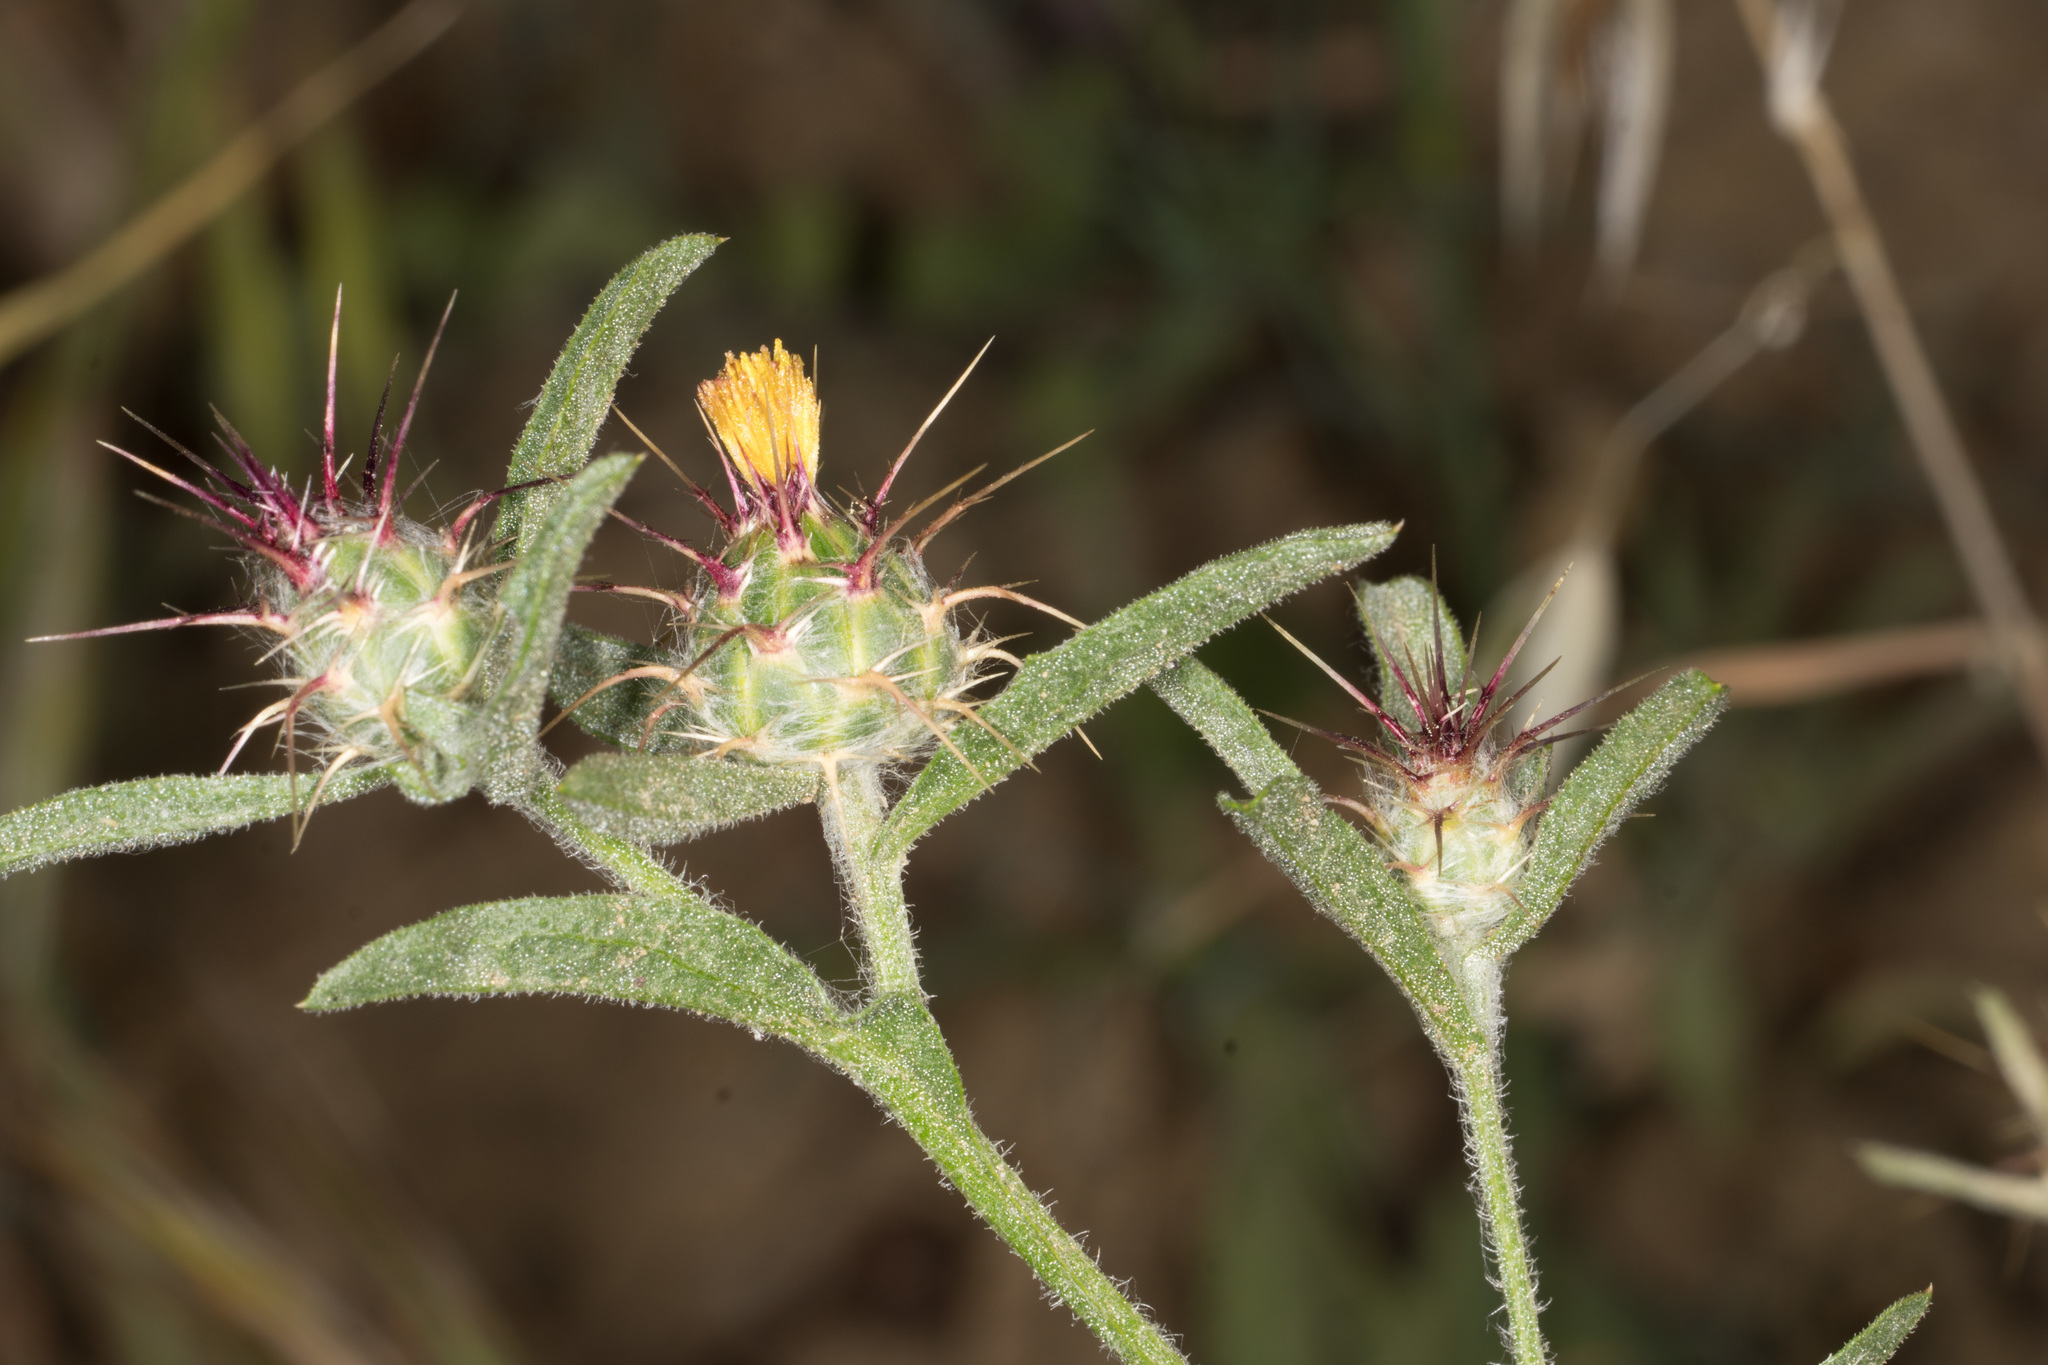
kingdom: Plantae
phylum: Tracheophyta
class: Magnoliopsida
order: Asterales
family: Asteraceae
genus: Centaurea
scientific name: Centaurea melitensis
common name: Maltese star-thistle
